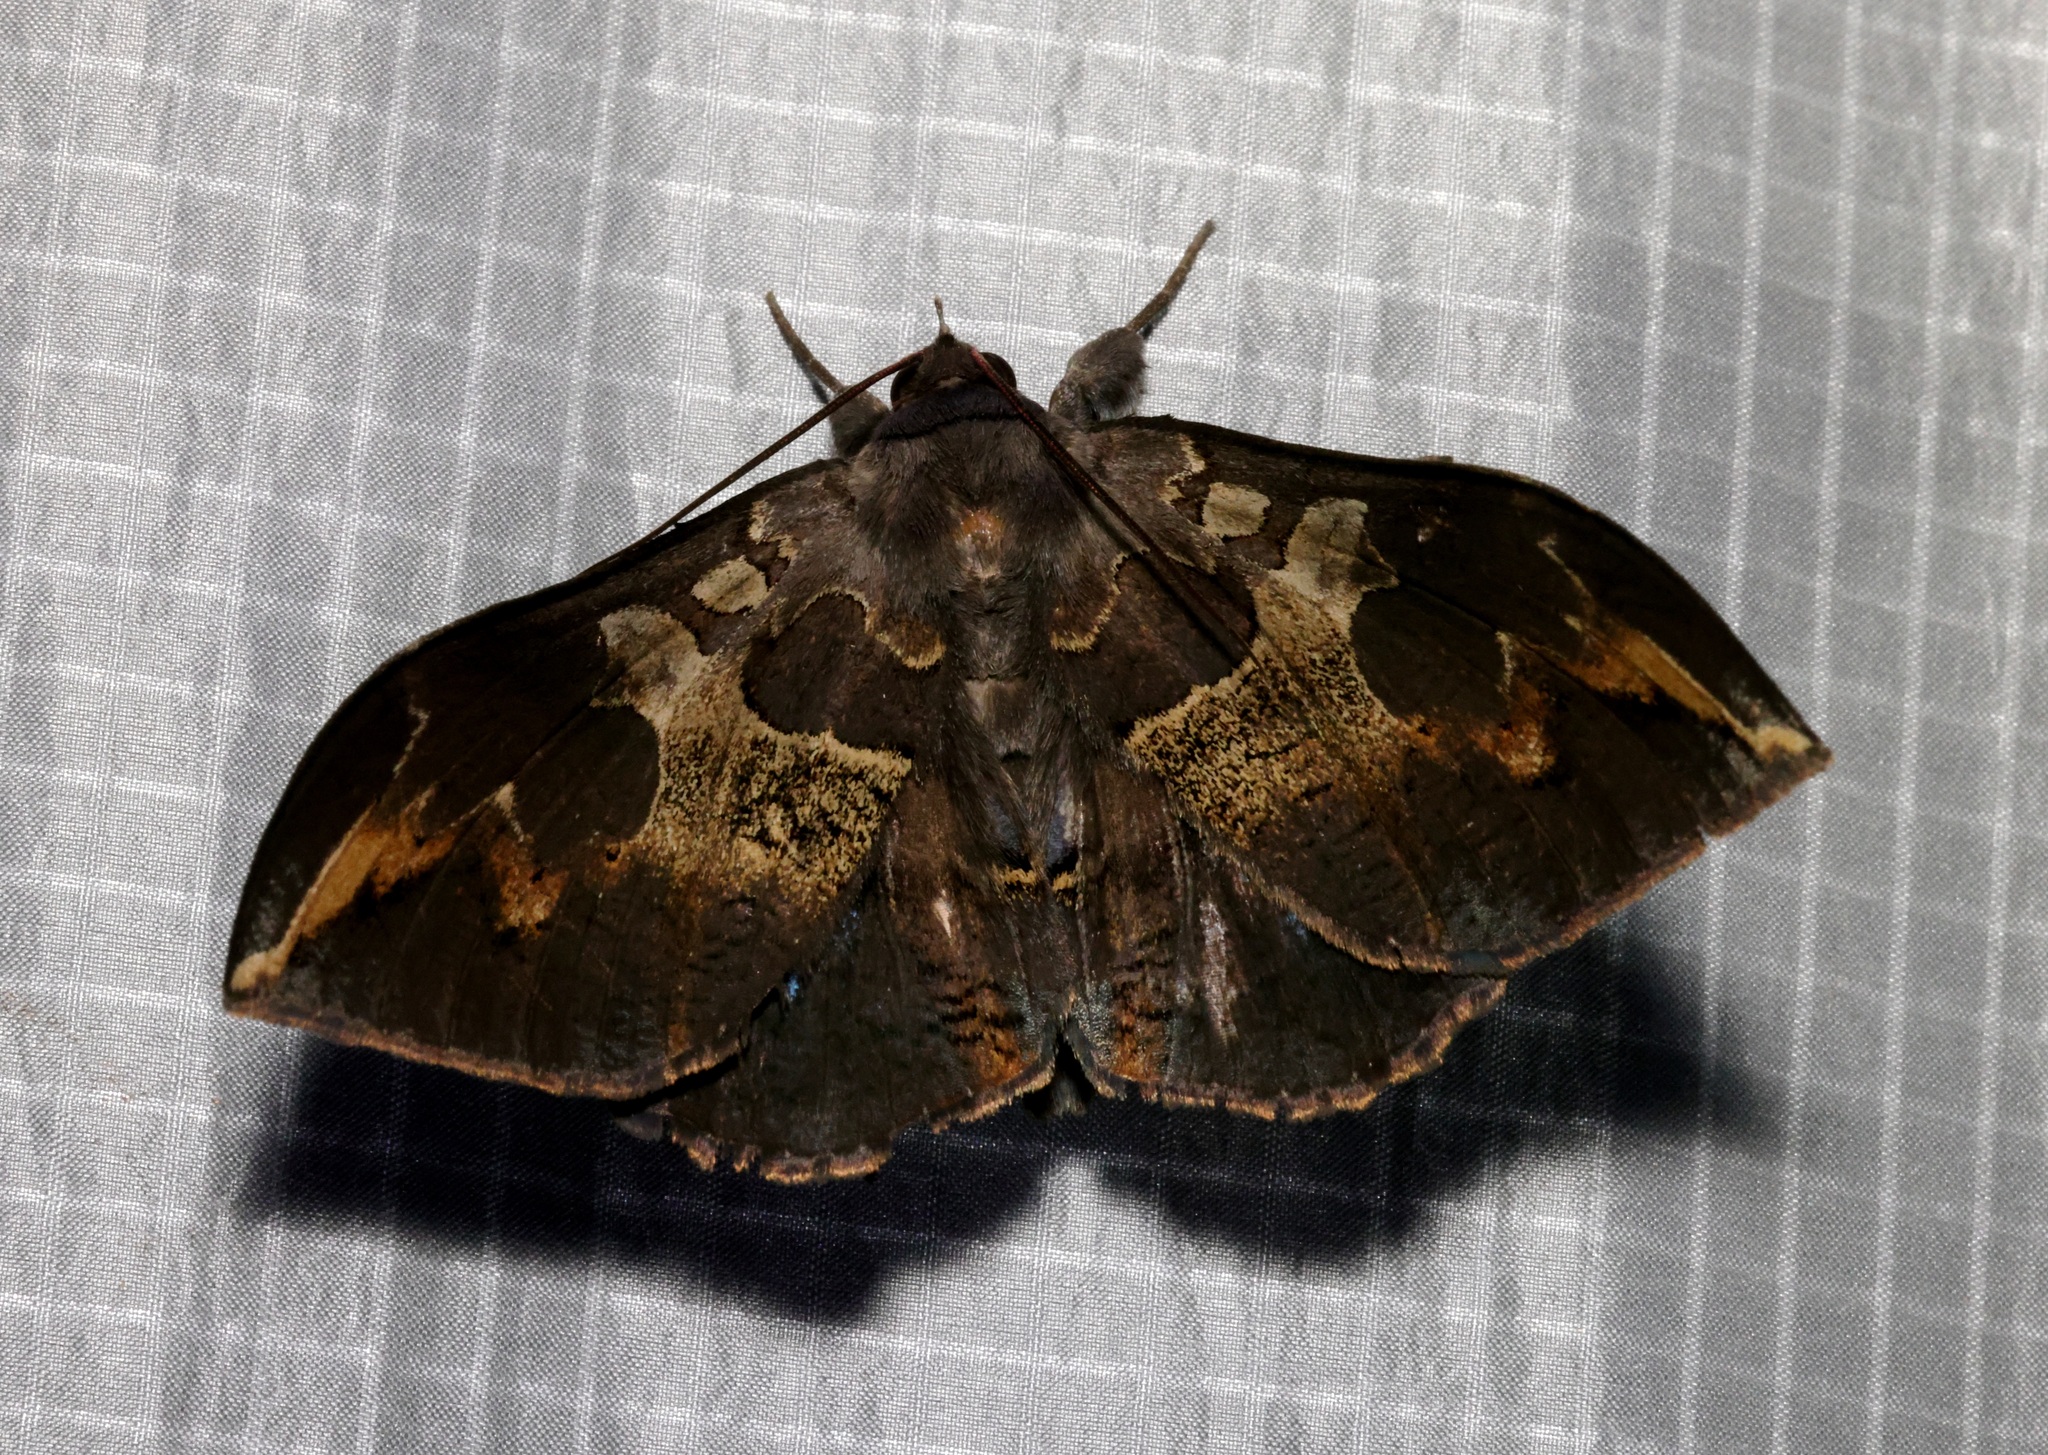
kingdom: Animalia
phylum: Arthropoda
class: Insecta
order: Lepidoptera
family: Erebidae
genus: Ischyja
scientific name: Ischyja ferrifracta
